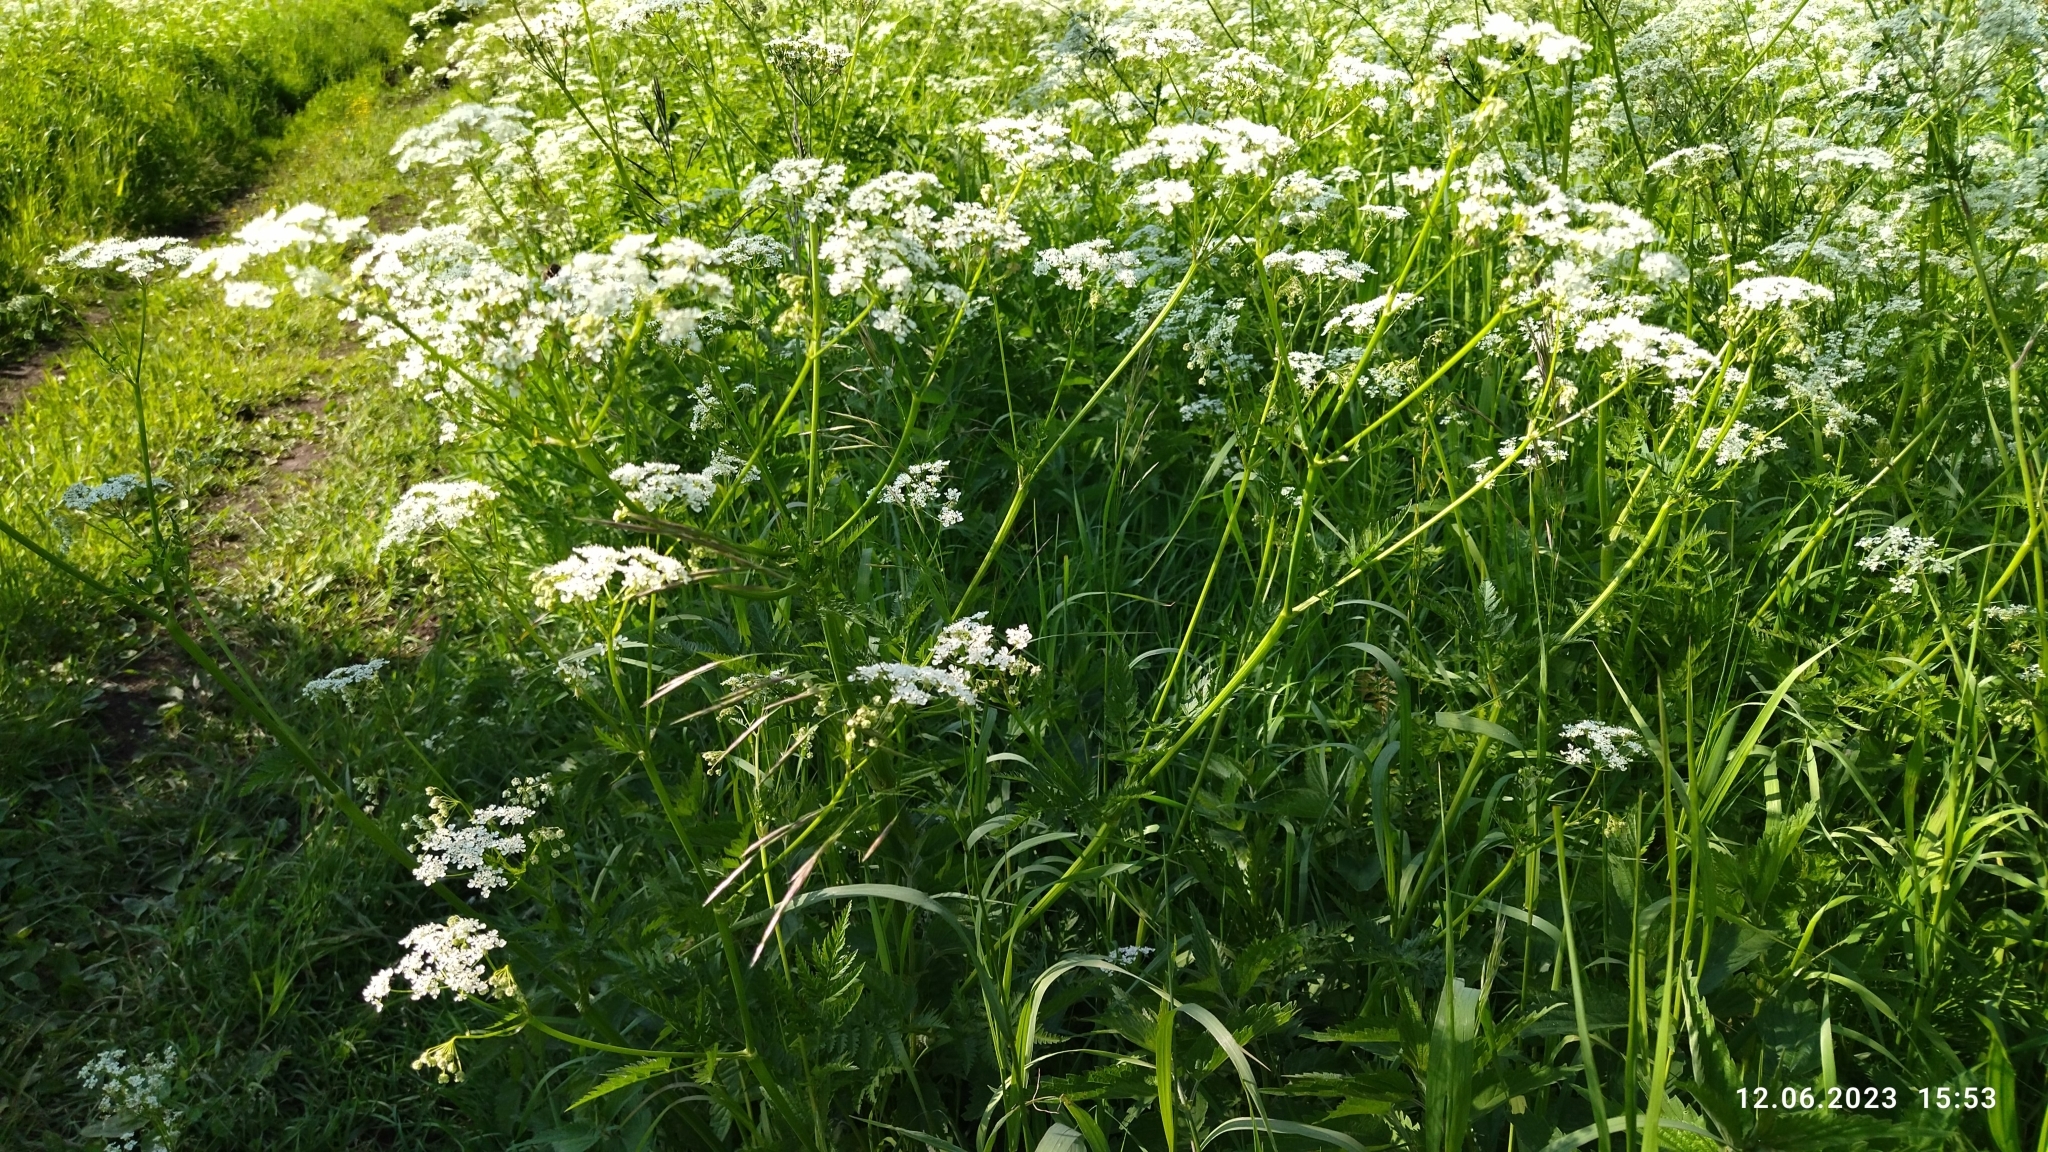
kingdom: Plantae
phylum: Tracheophyta
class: Magnoliopsida
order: Apiales
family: Apiaceae
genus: Anthriscus
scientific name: Anthriscus sylvestris
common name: Cow parsley
